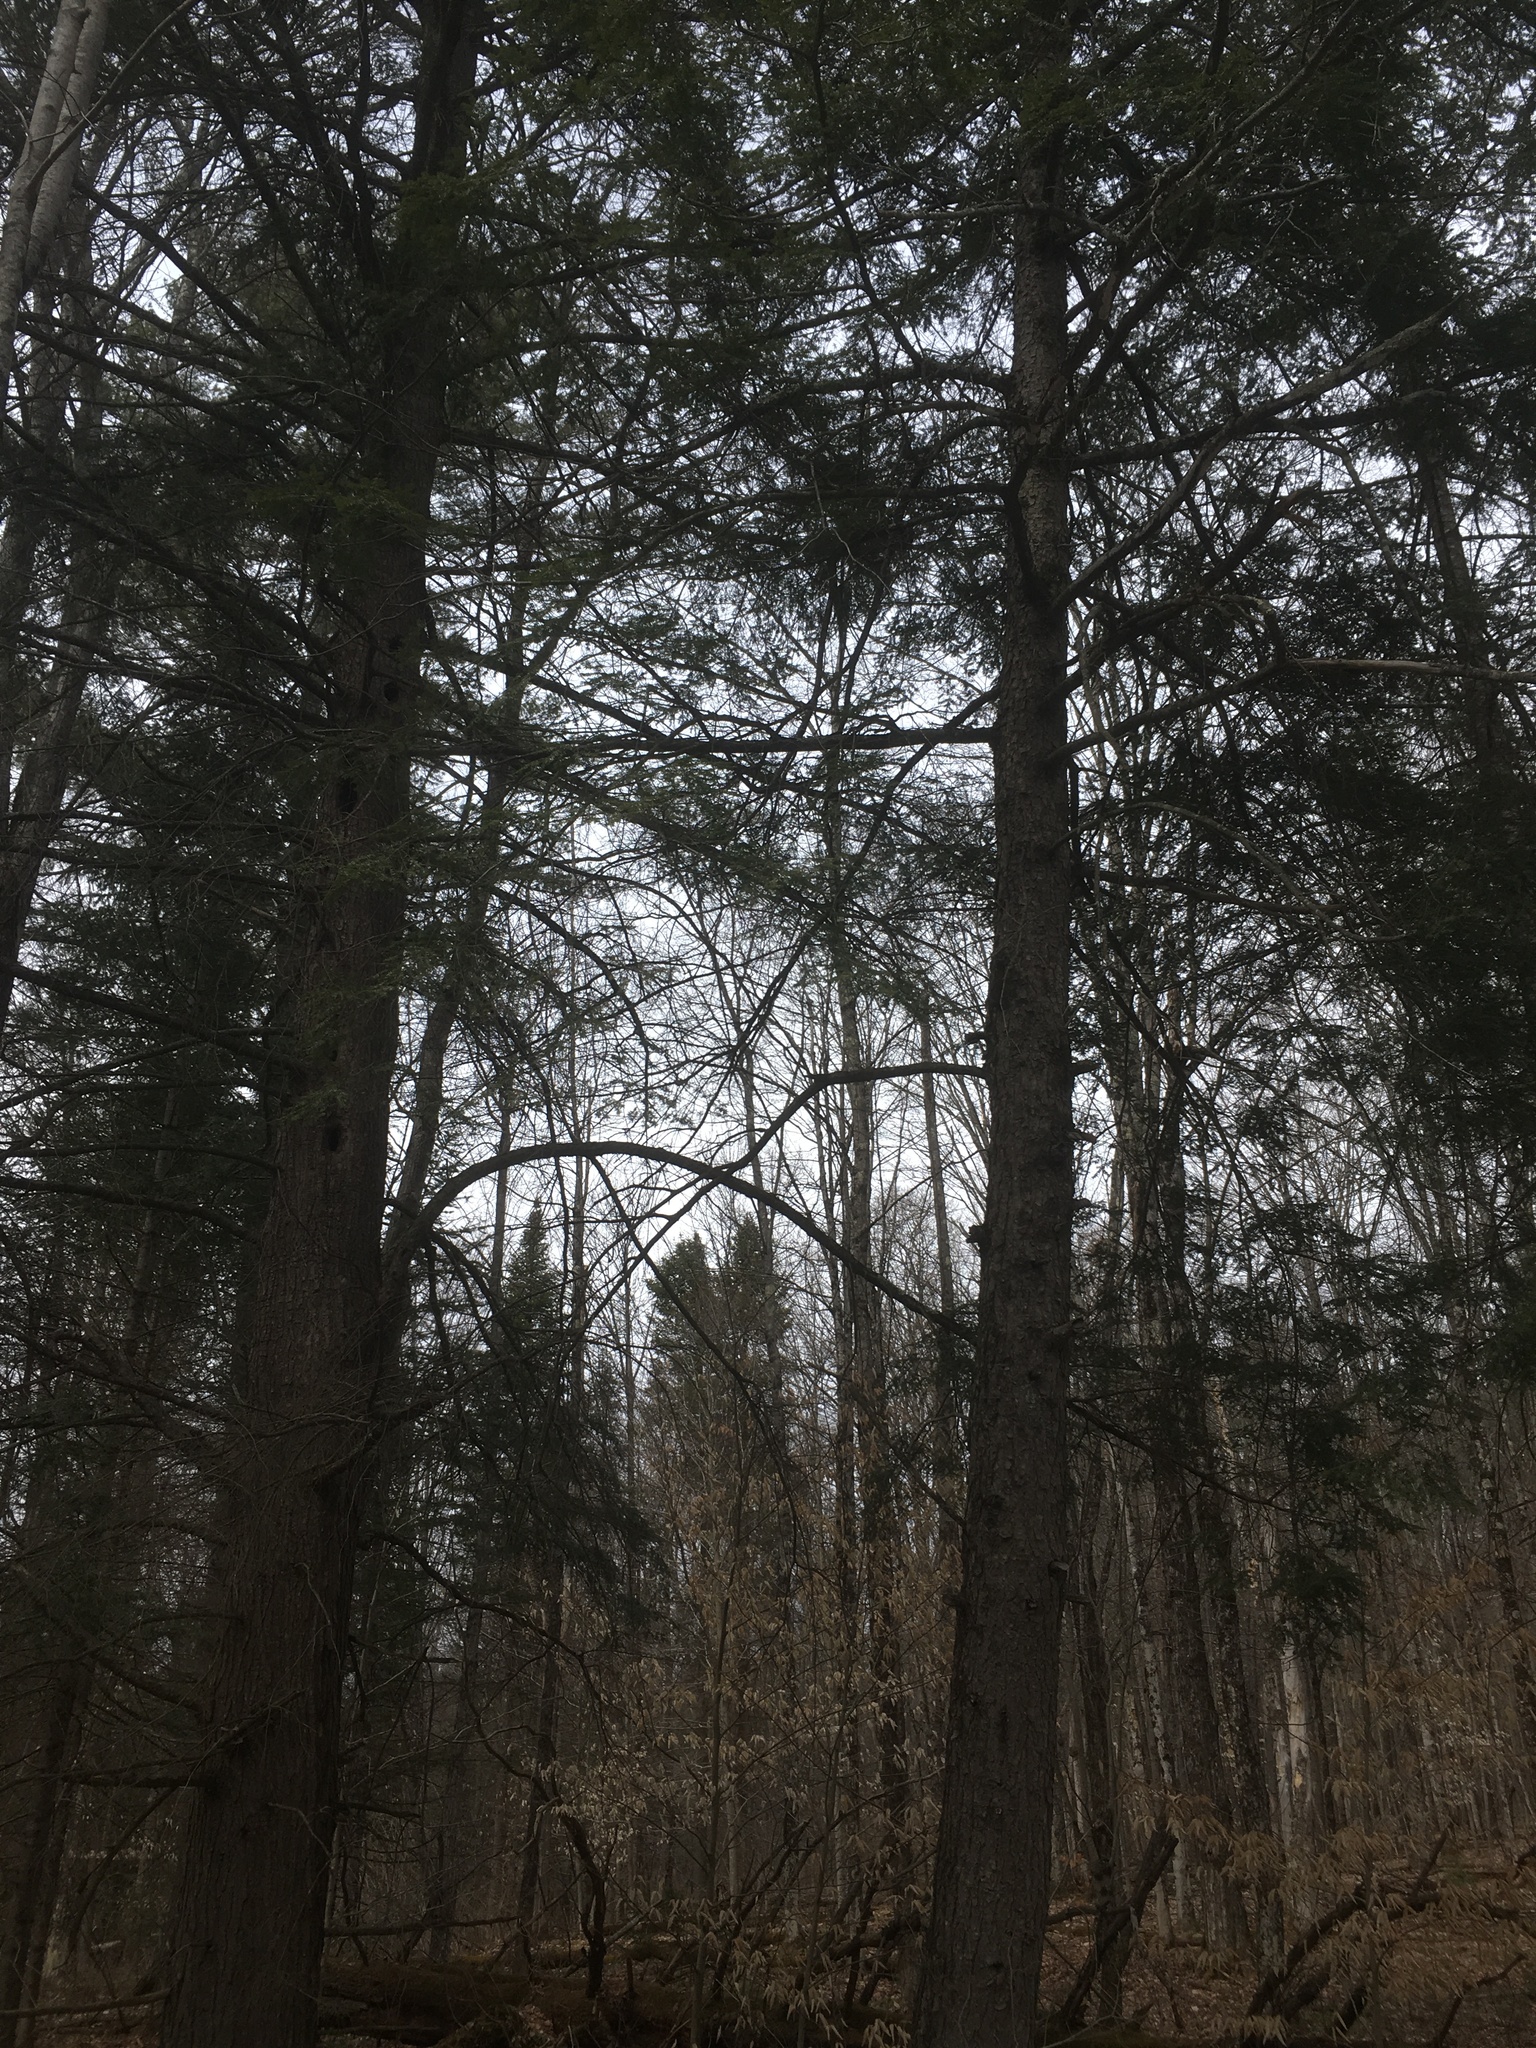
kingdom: Plantae
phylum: Tracheophyta
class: Pinopsida
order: Pinales
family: Pinaceae
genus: Tsuga
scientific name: Tsuga canadensis
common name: Eastern hemlock
